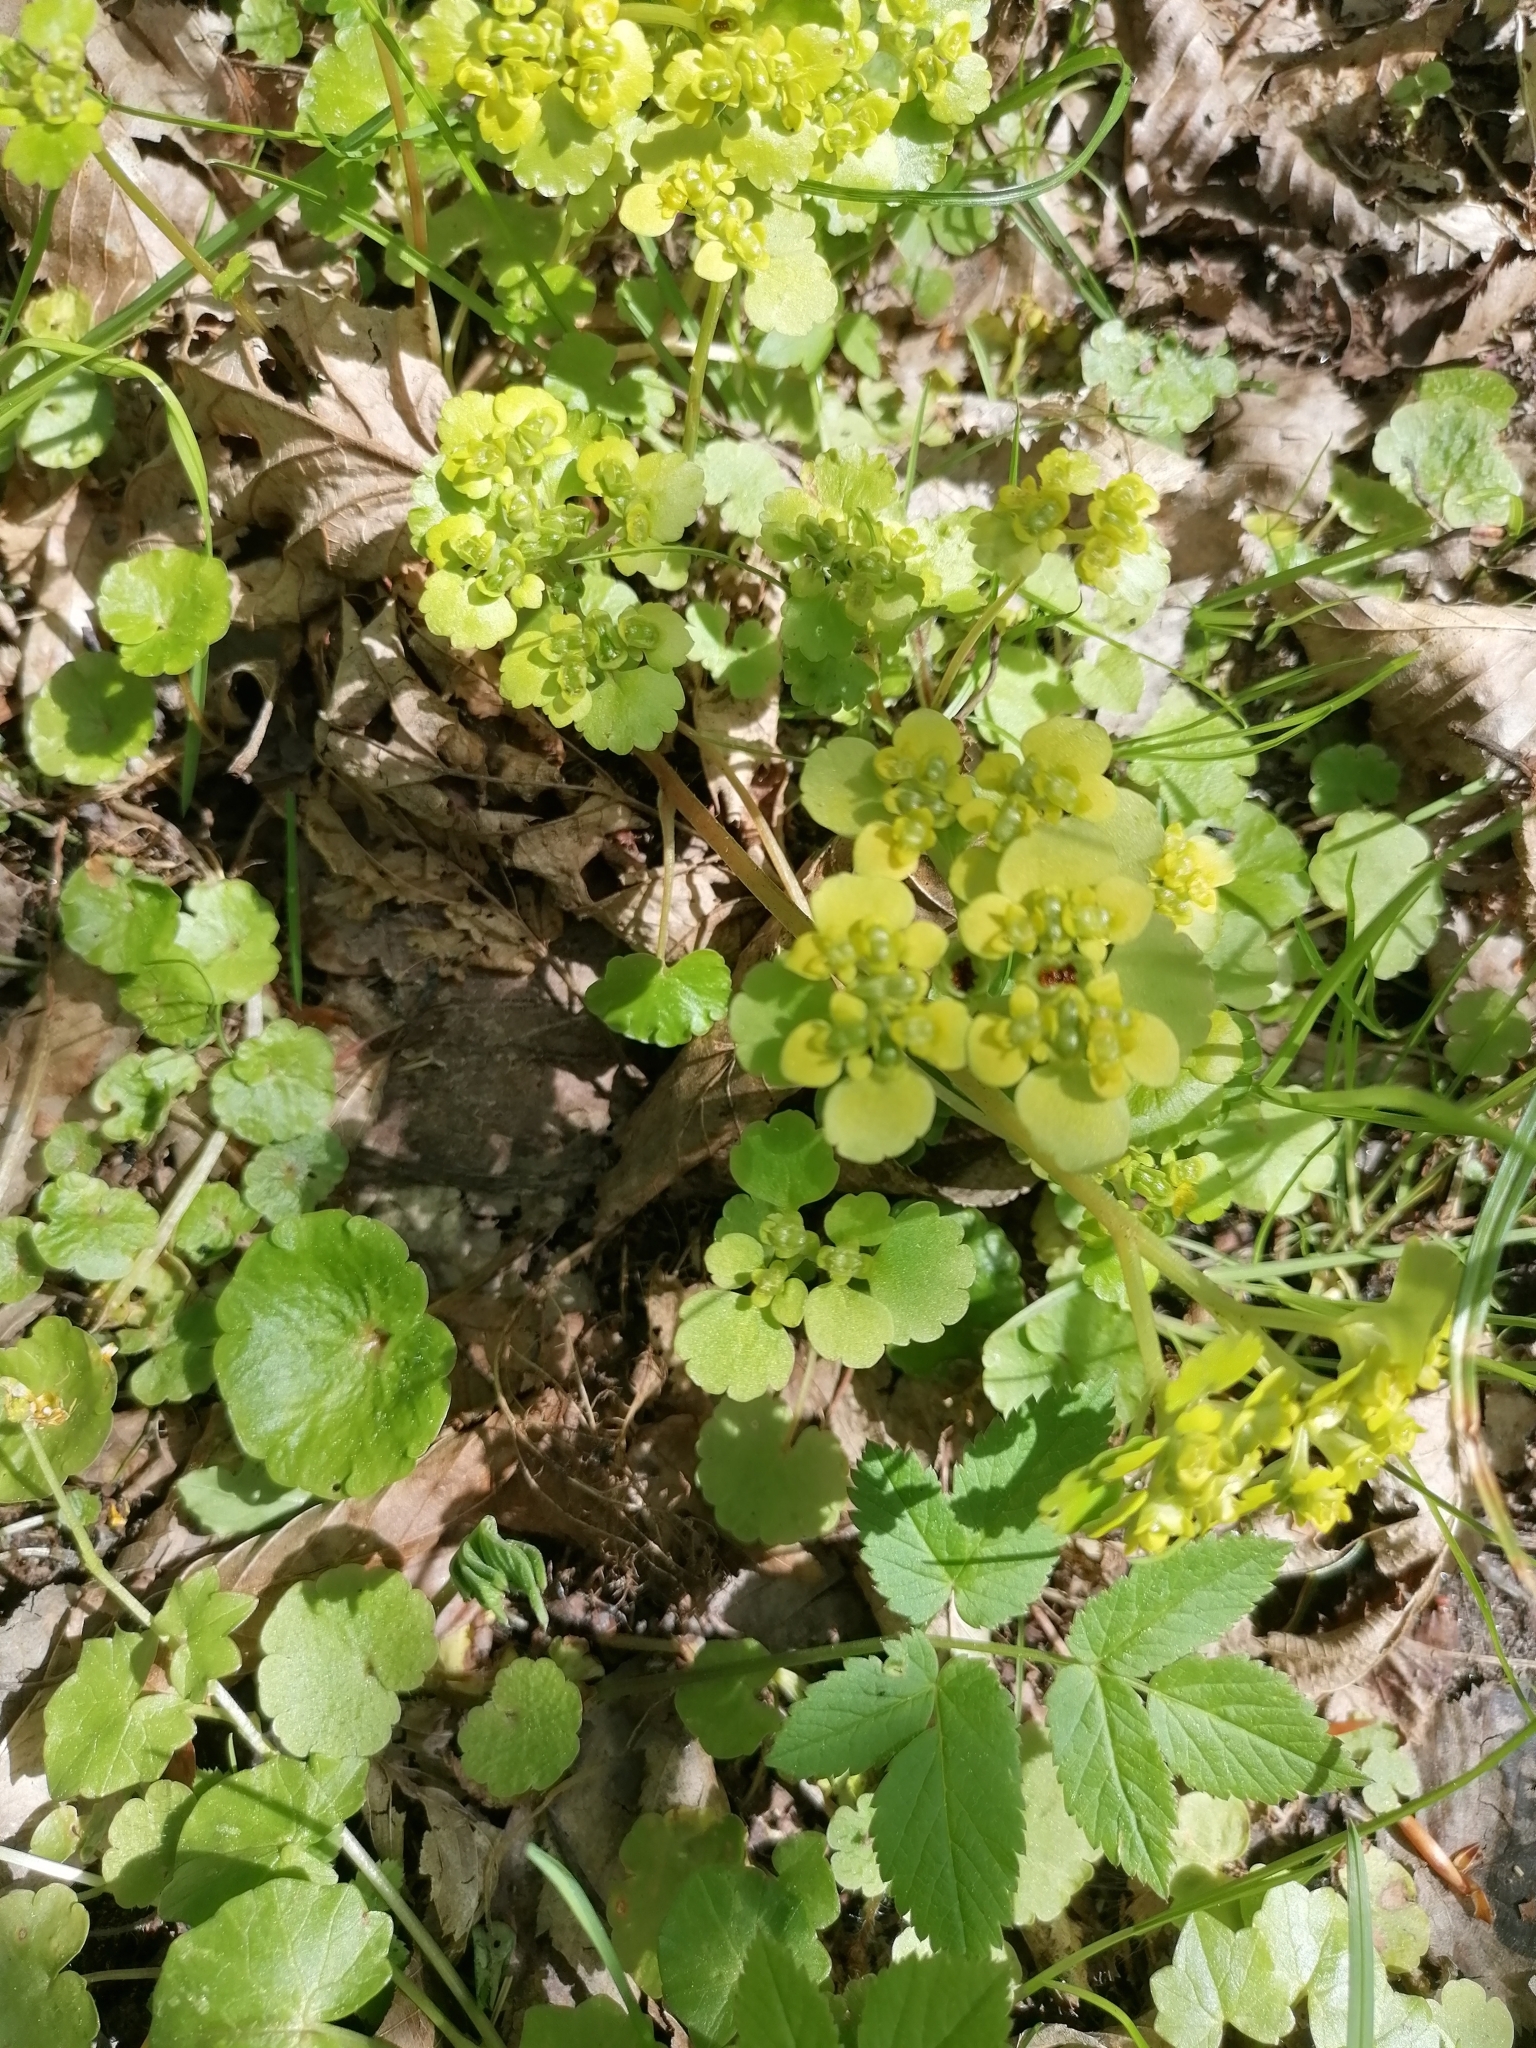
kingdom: Plantae
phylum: Tracheophyta
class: Magnoliopsida
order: Saxifragales
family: Saxifragaceae
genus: Chrysosplenium
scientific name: Chrysosplenium alternifolium
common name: Alternate-leaved golden-saxifrage
